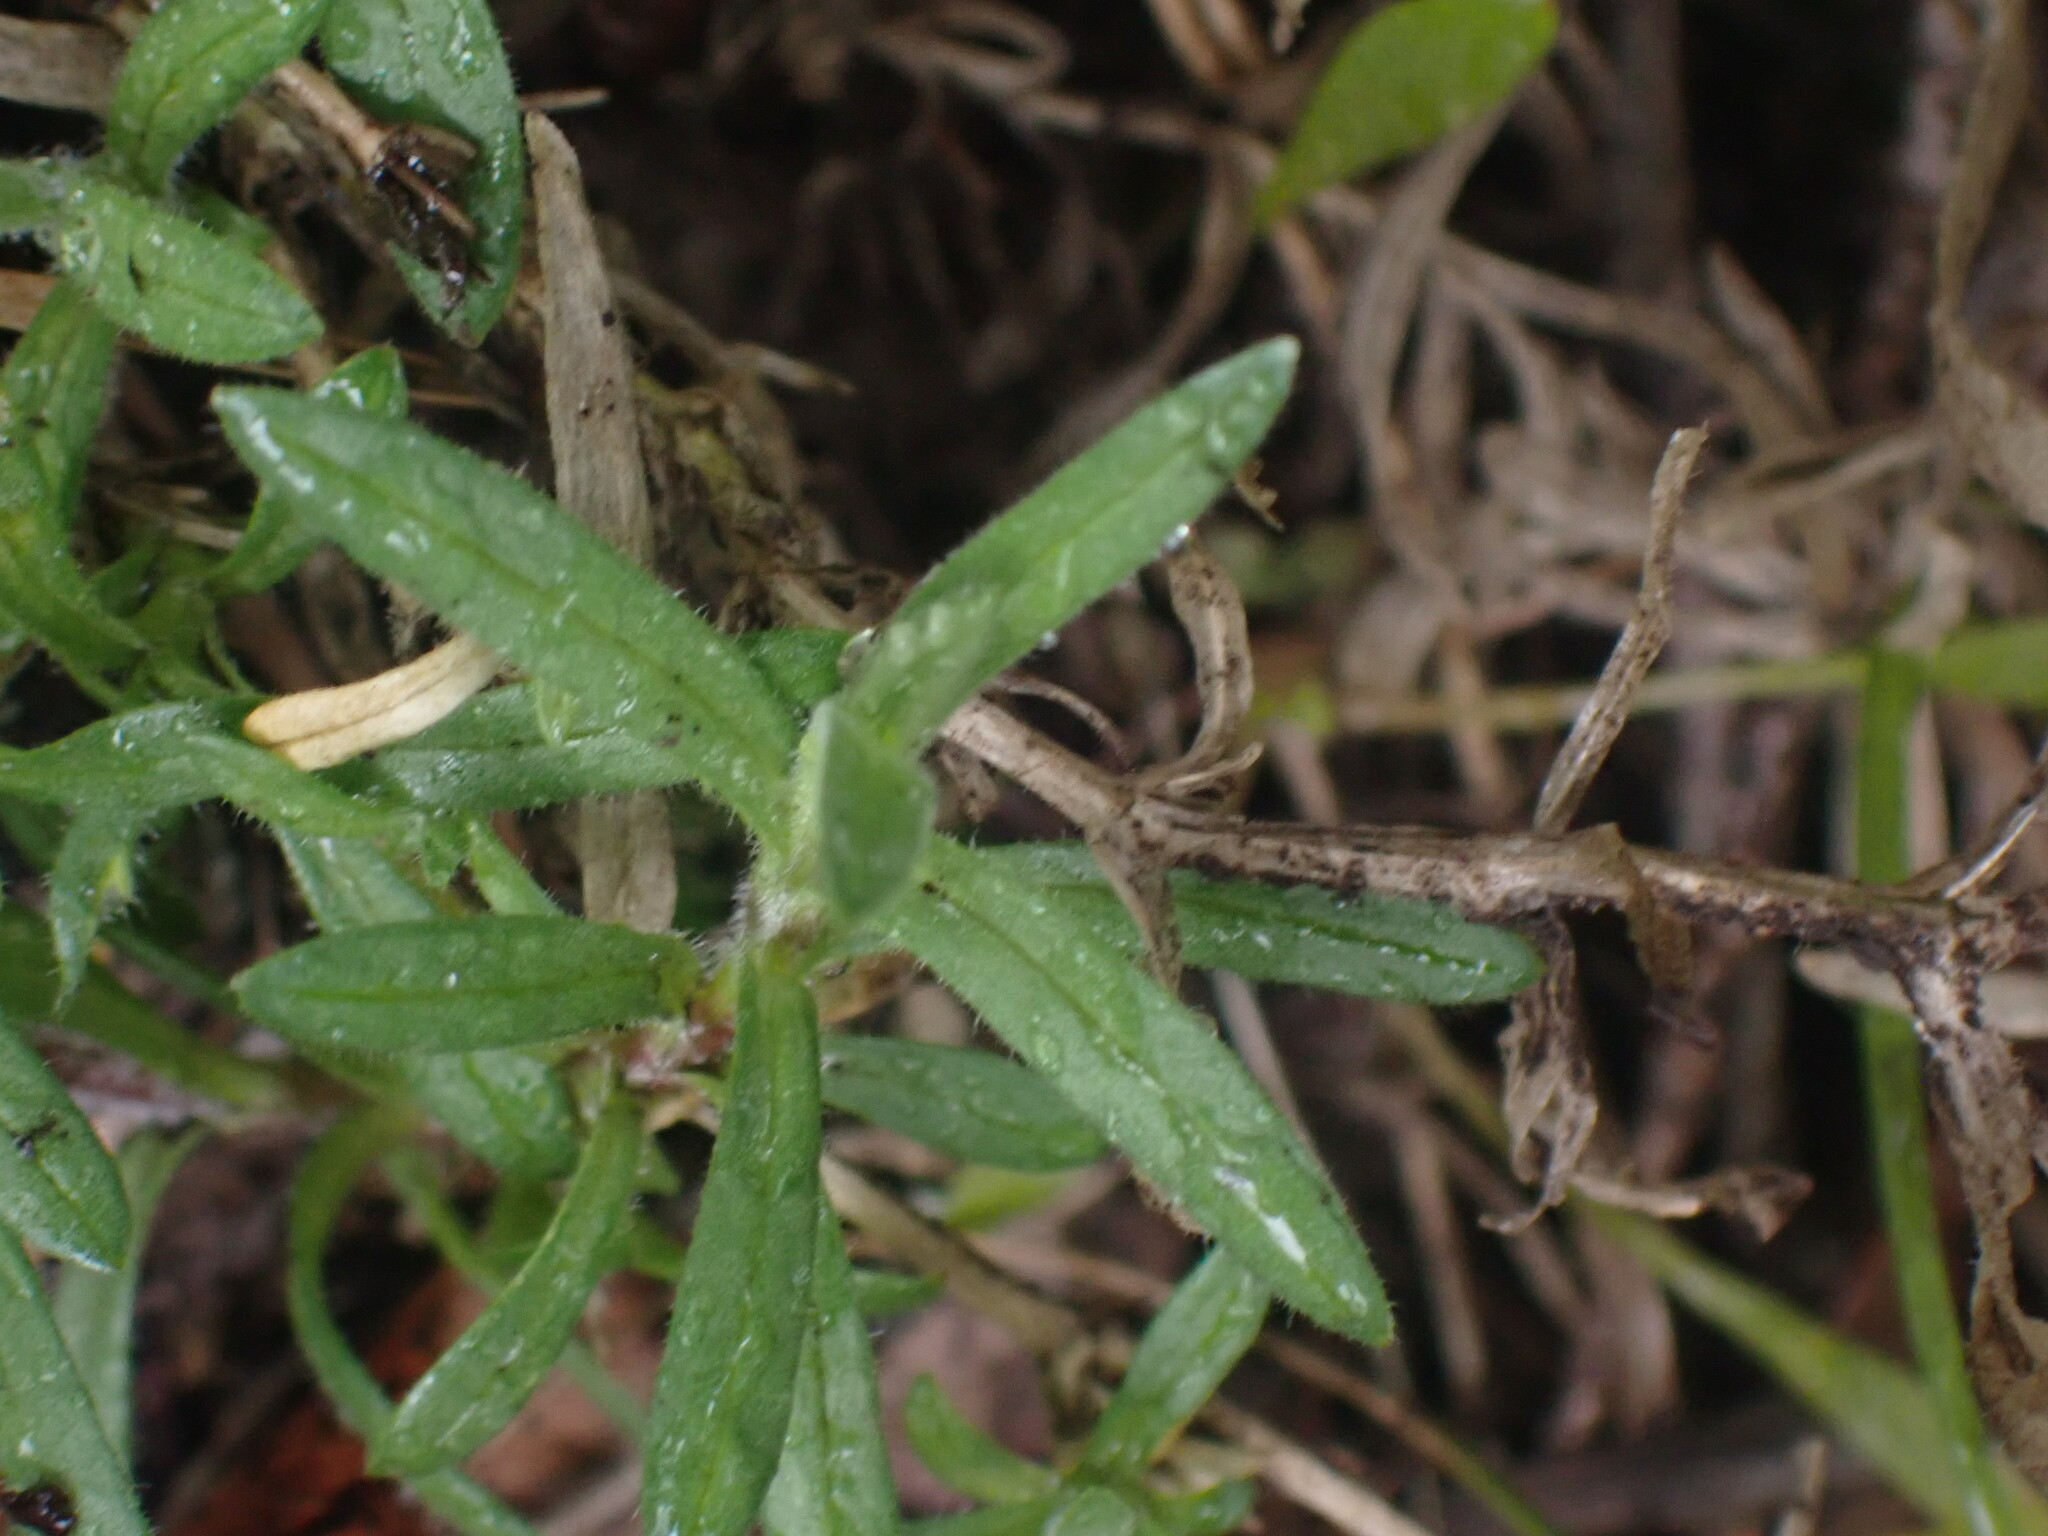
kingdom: Plantae
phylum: Tracheophyta
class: Magnoliopsida
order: Caryophyllales
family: Caryophyllaceae
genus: Cerastium
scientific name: Cerastium arvense
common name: Field mouse-ear
